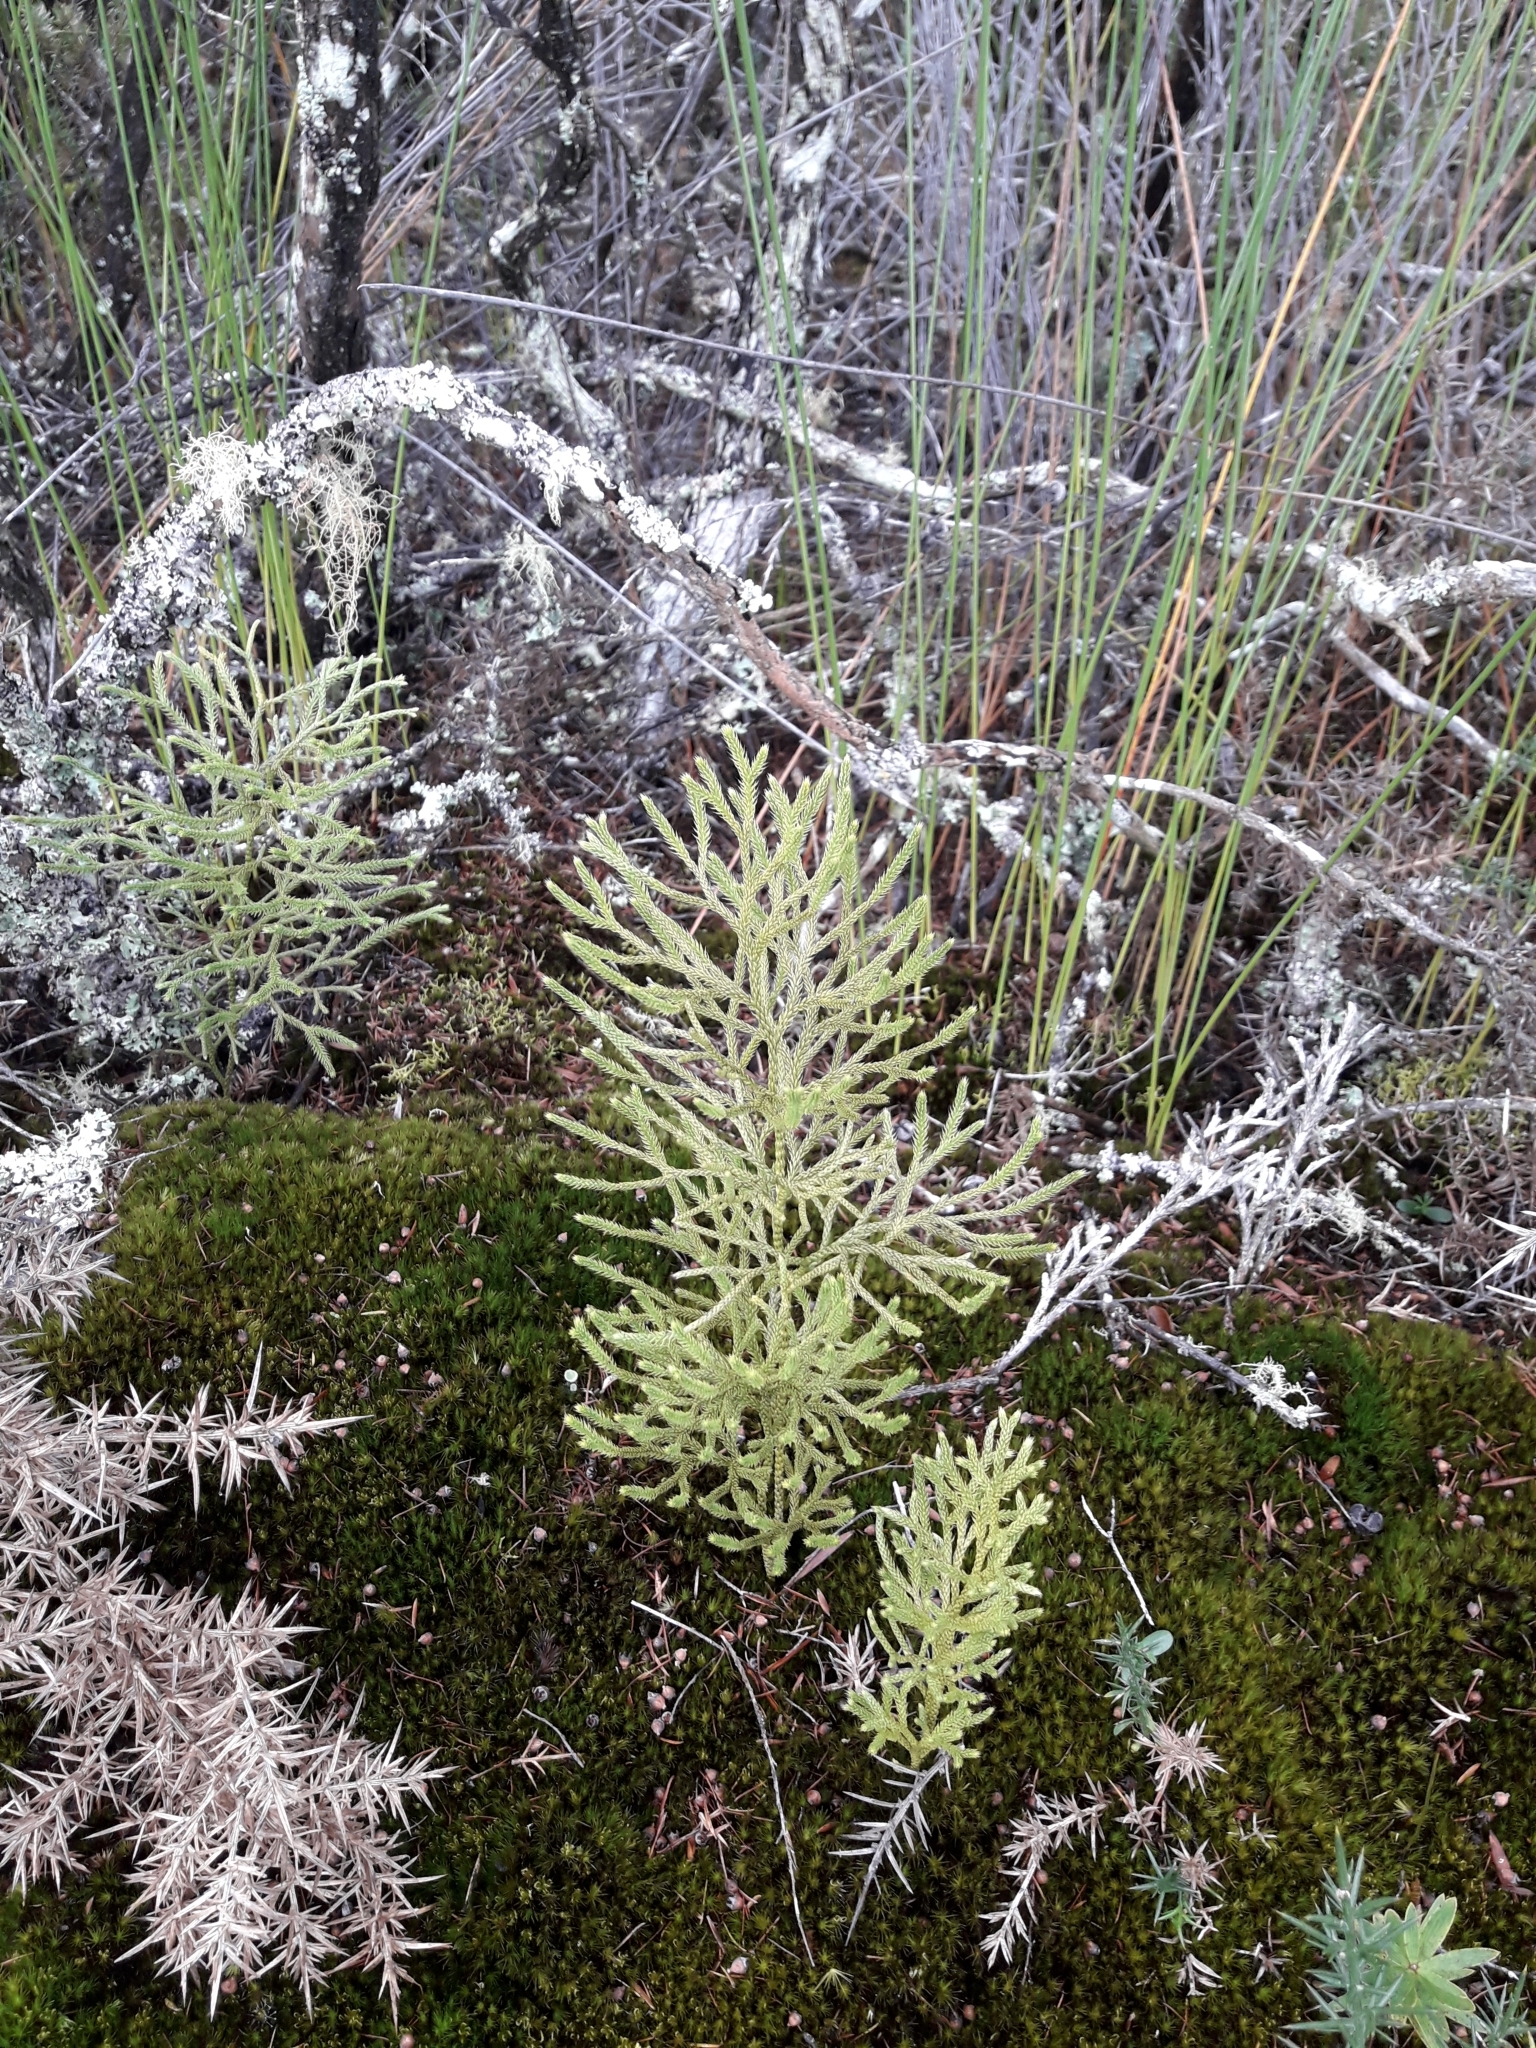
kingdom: Plantae
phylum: Tracheophyta
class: Lycopodiopsida
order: Lycopodiales
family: Lycopodiaceae
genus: Pseudolycopodium
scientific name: Pseudolycopodium densum
